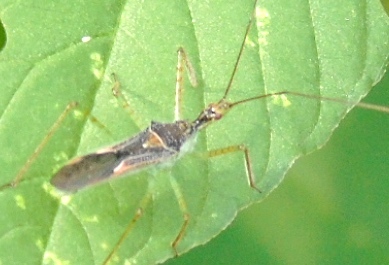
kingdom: Animalia
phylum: Arthropoda
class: Insecta
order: Hemiptera
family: Reduviidae
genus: Zelus
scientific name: Zelus
